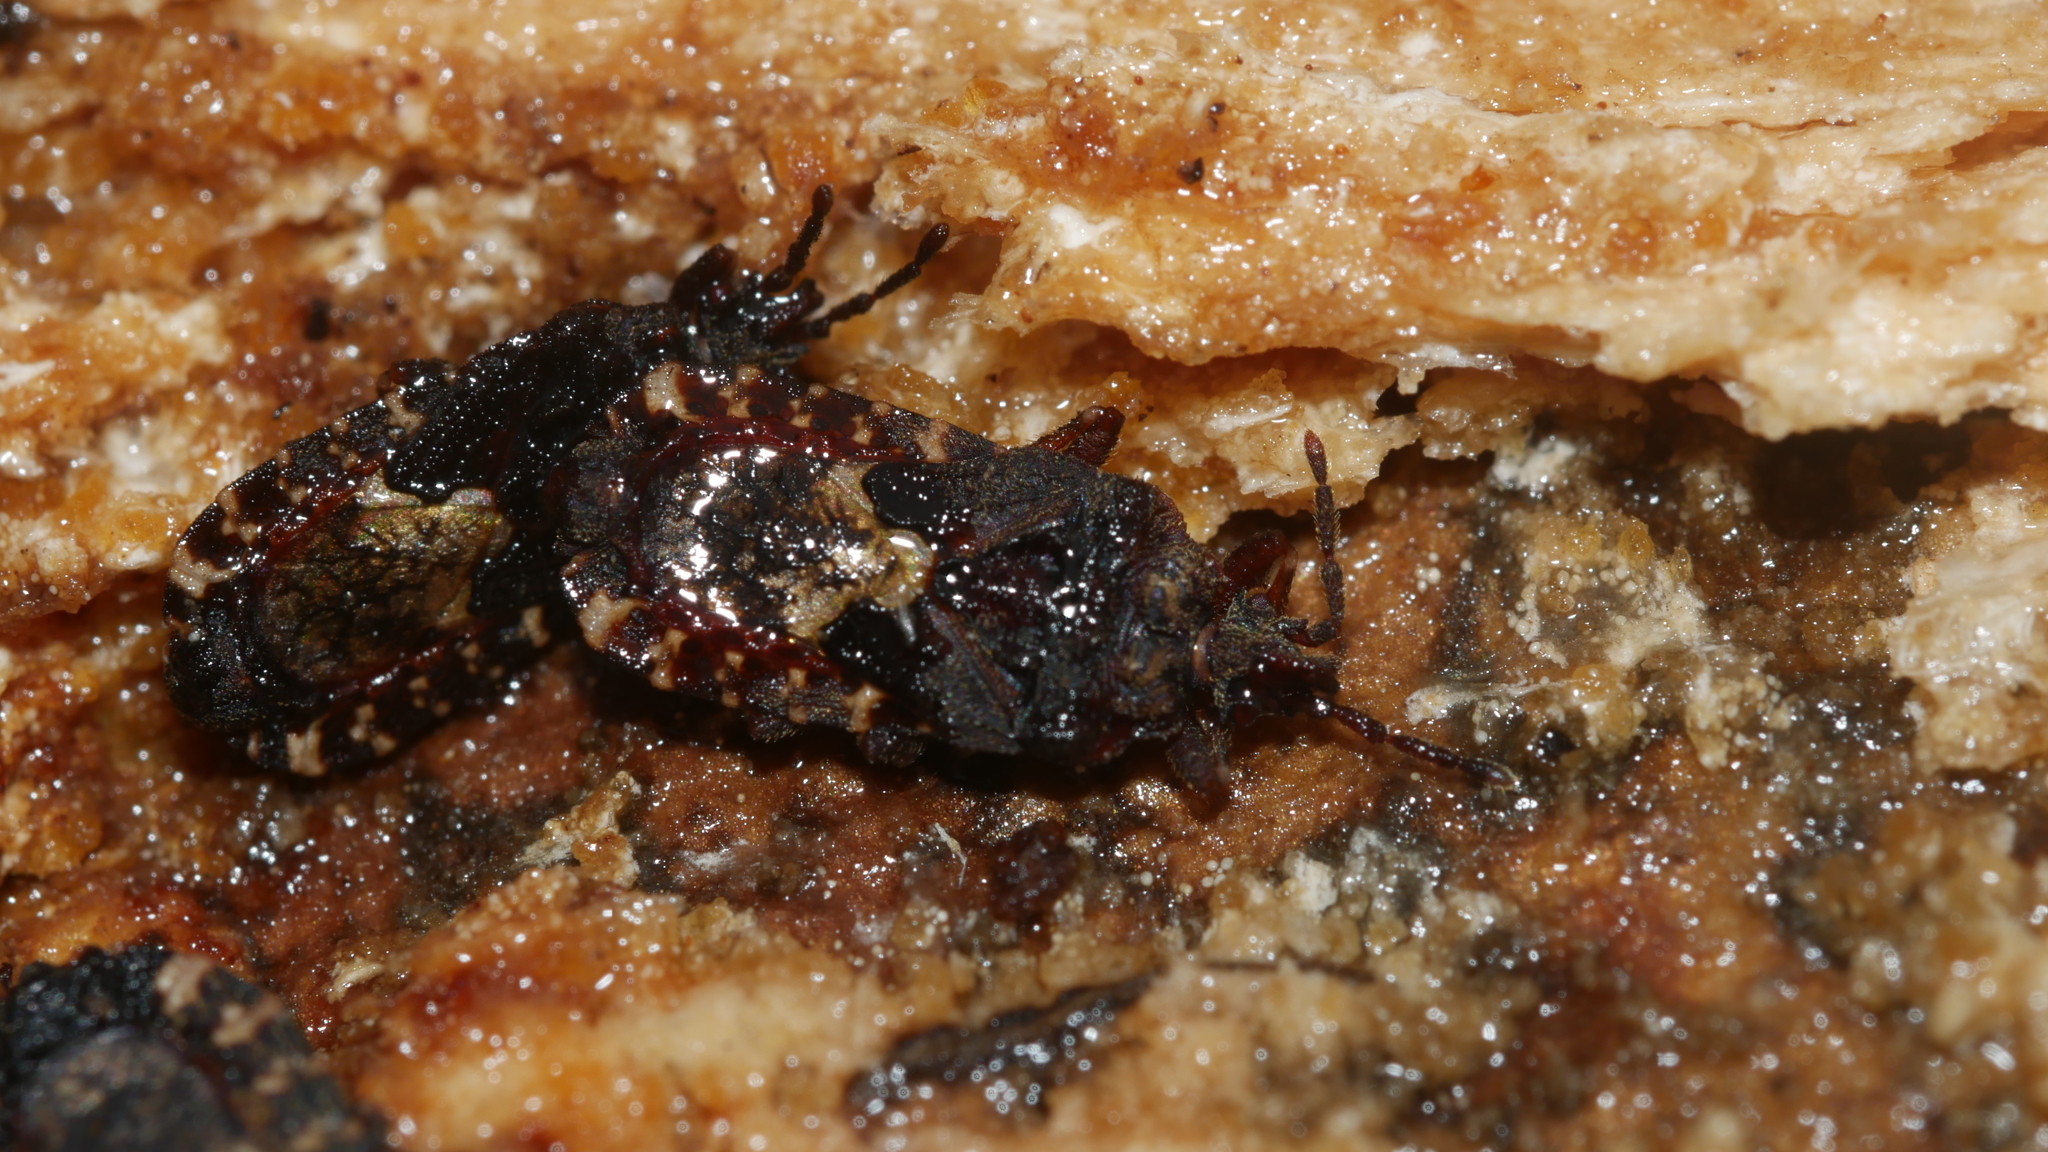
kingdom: Animalia
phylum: Arthropoda
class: Insecta
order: Hemiptera
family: Aradidae
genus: Mezira
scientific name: Mezira
